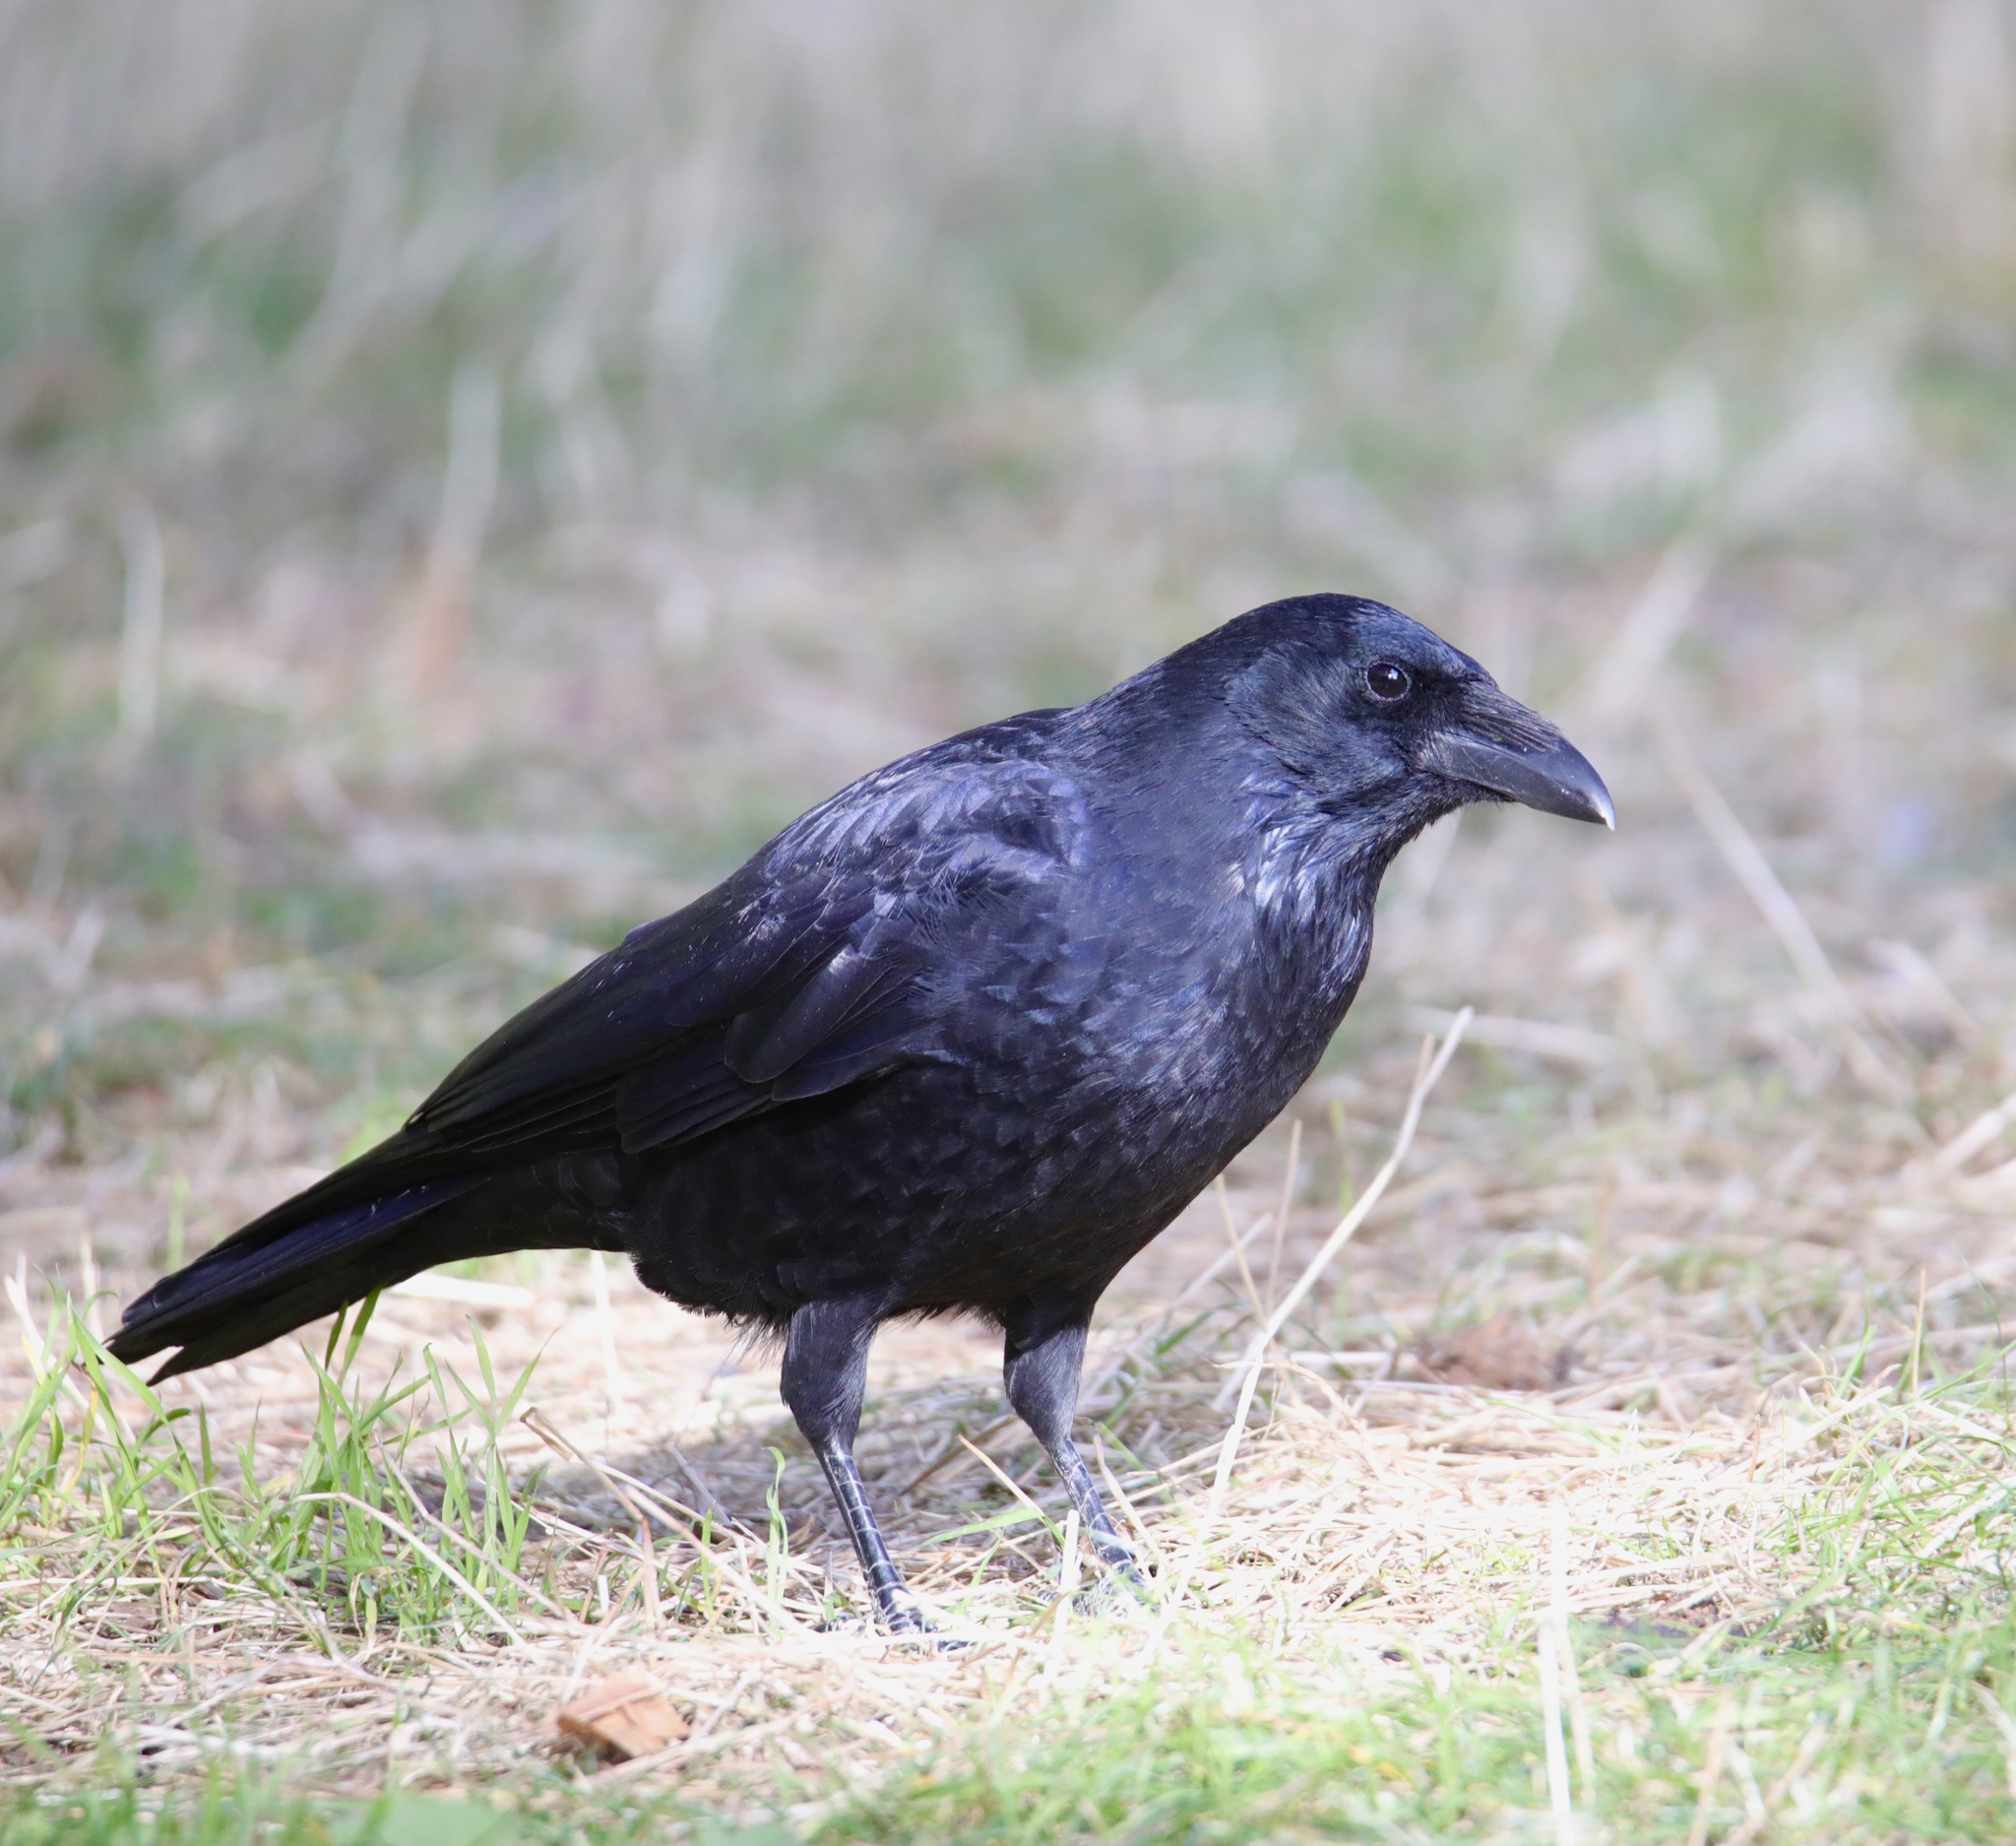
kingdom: Animalia
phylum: Chordata
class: Aves
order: Passeriformes
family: Corvidae
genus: Corvus
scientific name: Corvus corone
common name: Carrion crow
